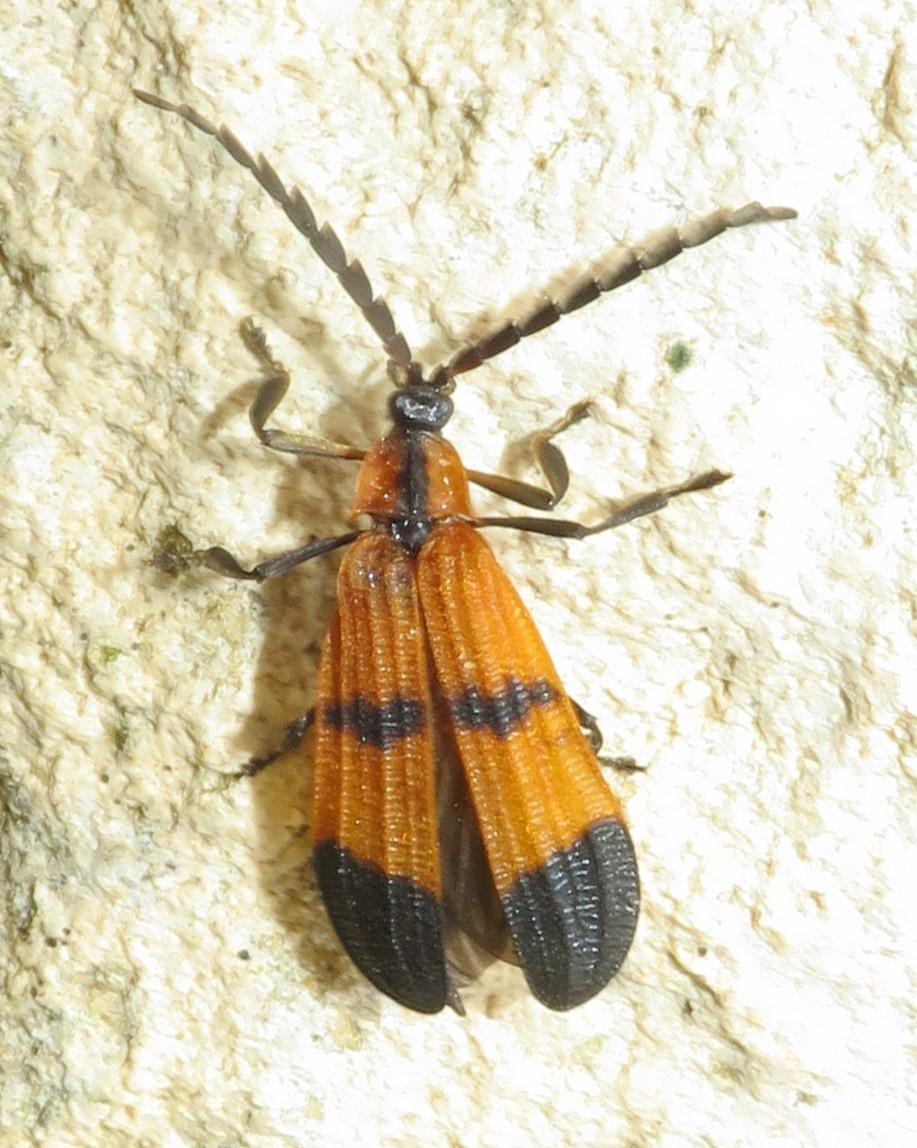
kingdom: Animalia
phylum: Arthropoda
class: Insecta
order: Coleoptera
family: Lycidae
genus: Calopteron
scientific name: Calopteron reticulatum
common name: Banded net-winged beetle
